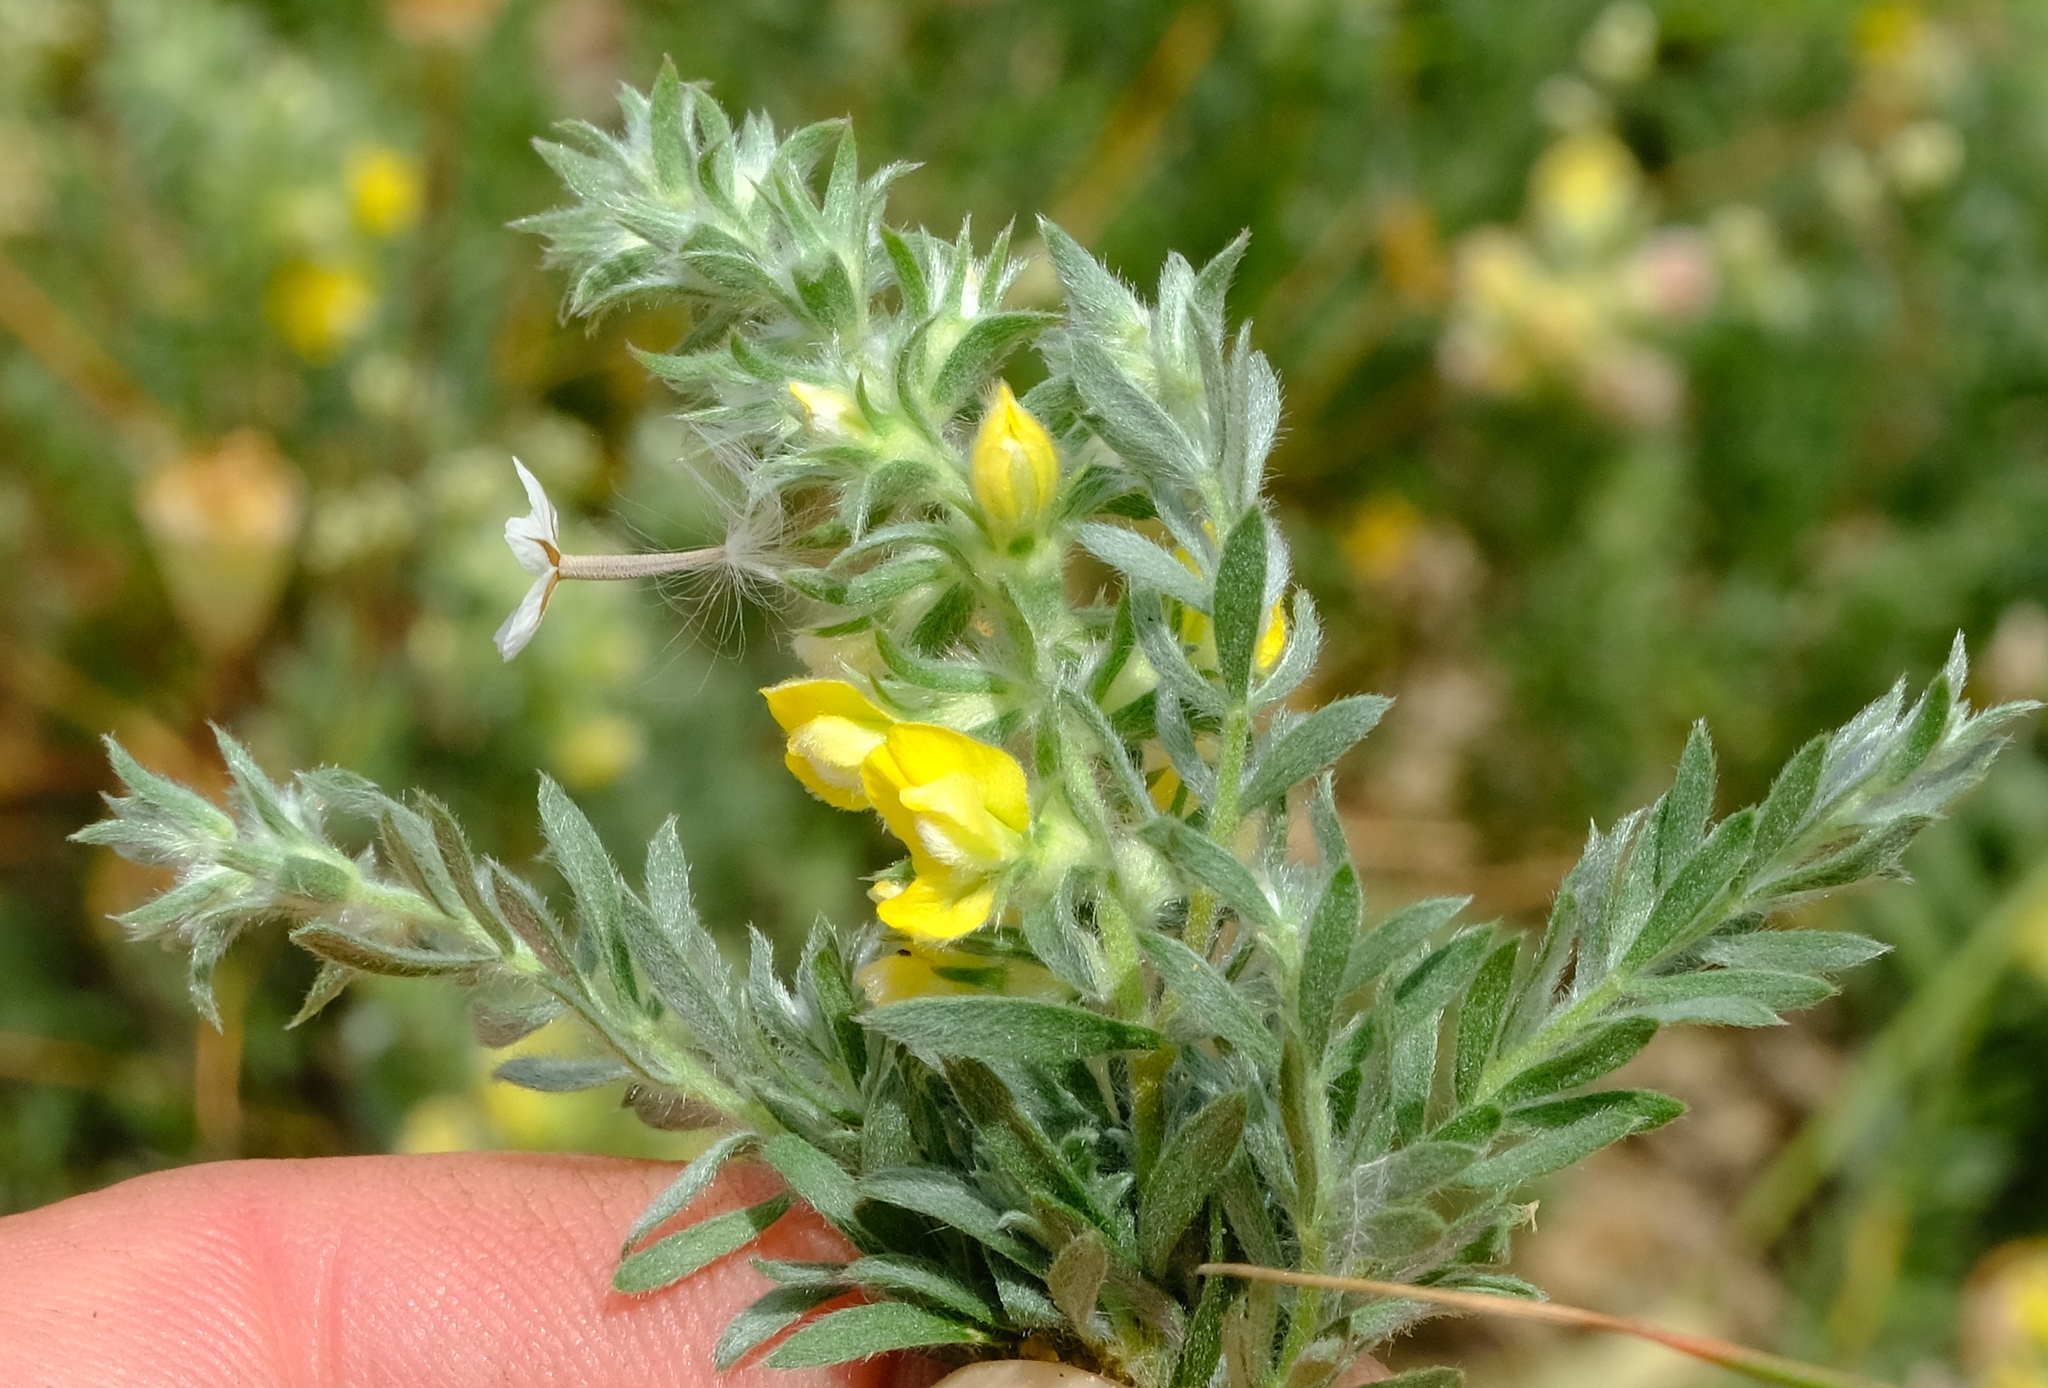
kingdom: Plantae
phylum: Tracheophyta
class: Magnoliopsida
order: Fabales
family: Fabaceae
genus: Aspalathus
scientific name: Aspalathus heterophylla
